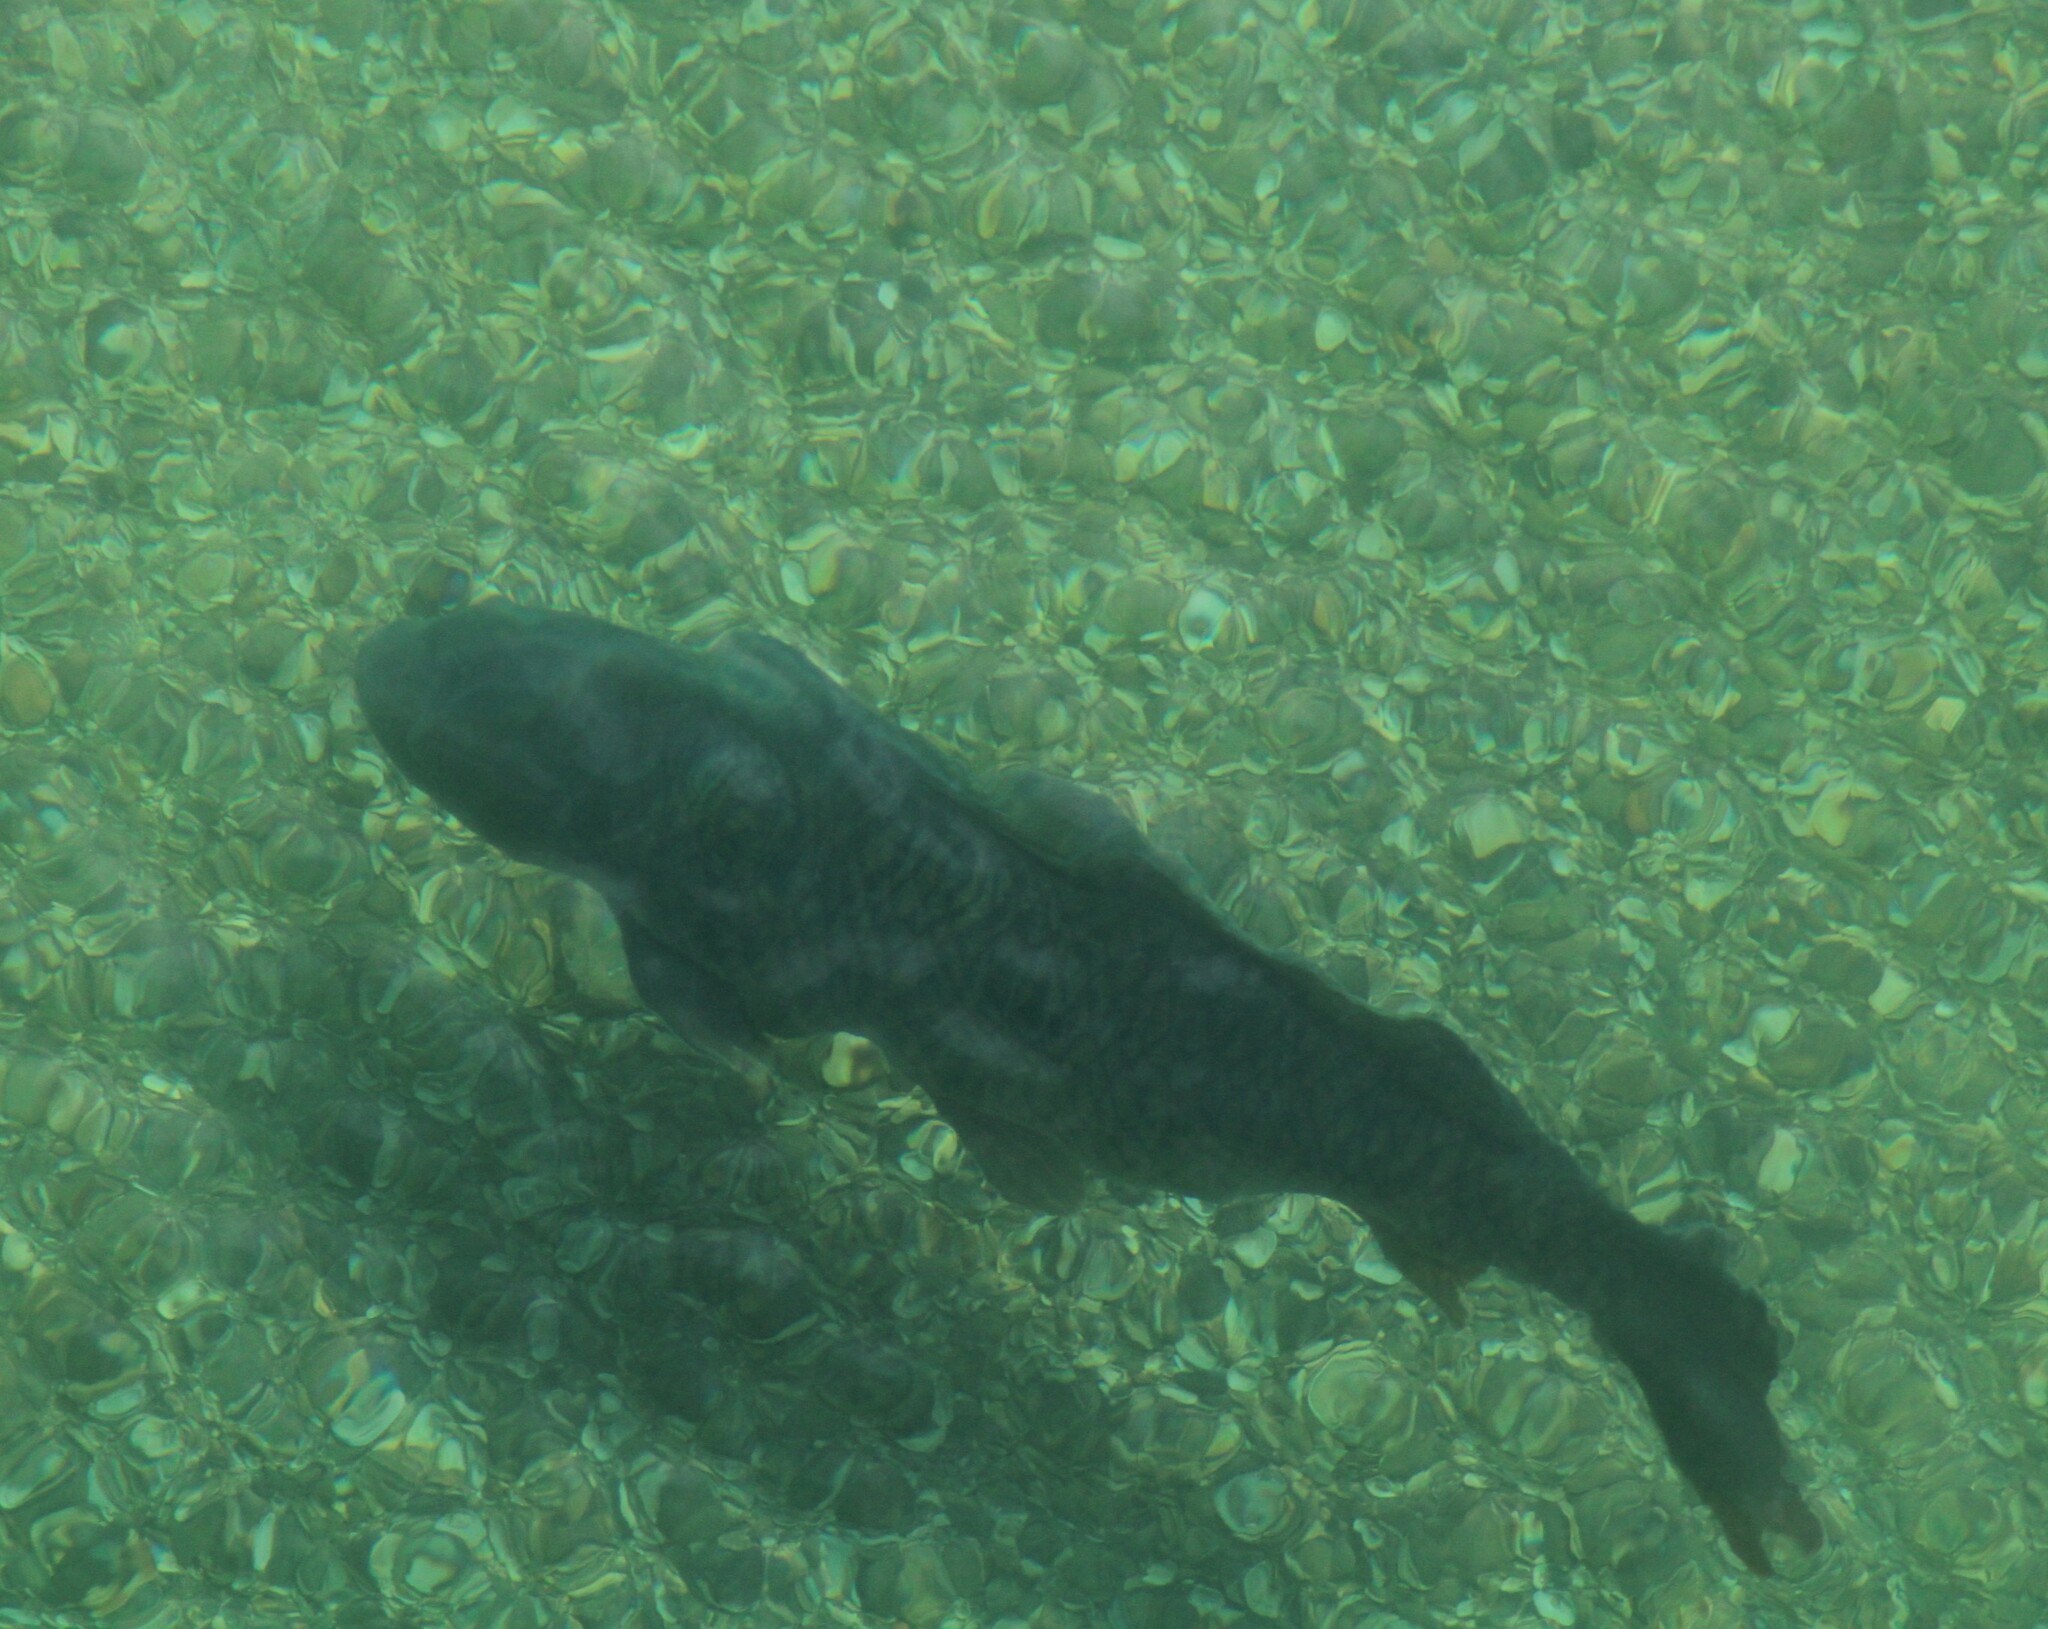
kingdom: Animalia
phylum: Chordata
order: Cypriniformes
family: Cyprinidae
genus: Cyprinus
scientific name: Cyprinus carpio
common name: Common carp
